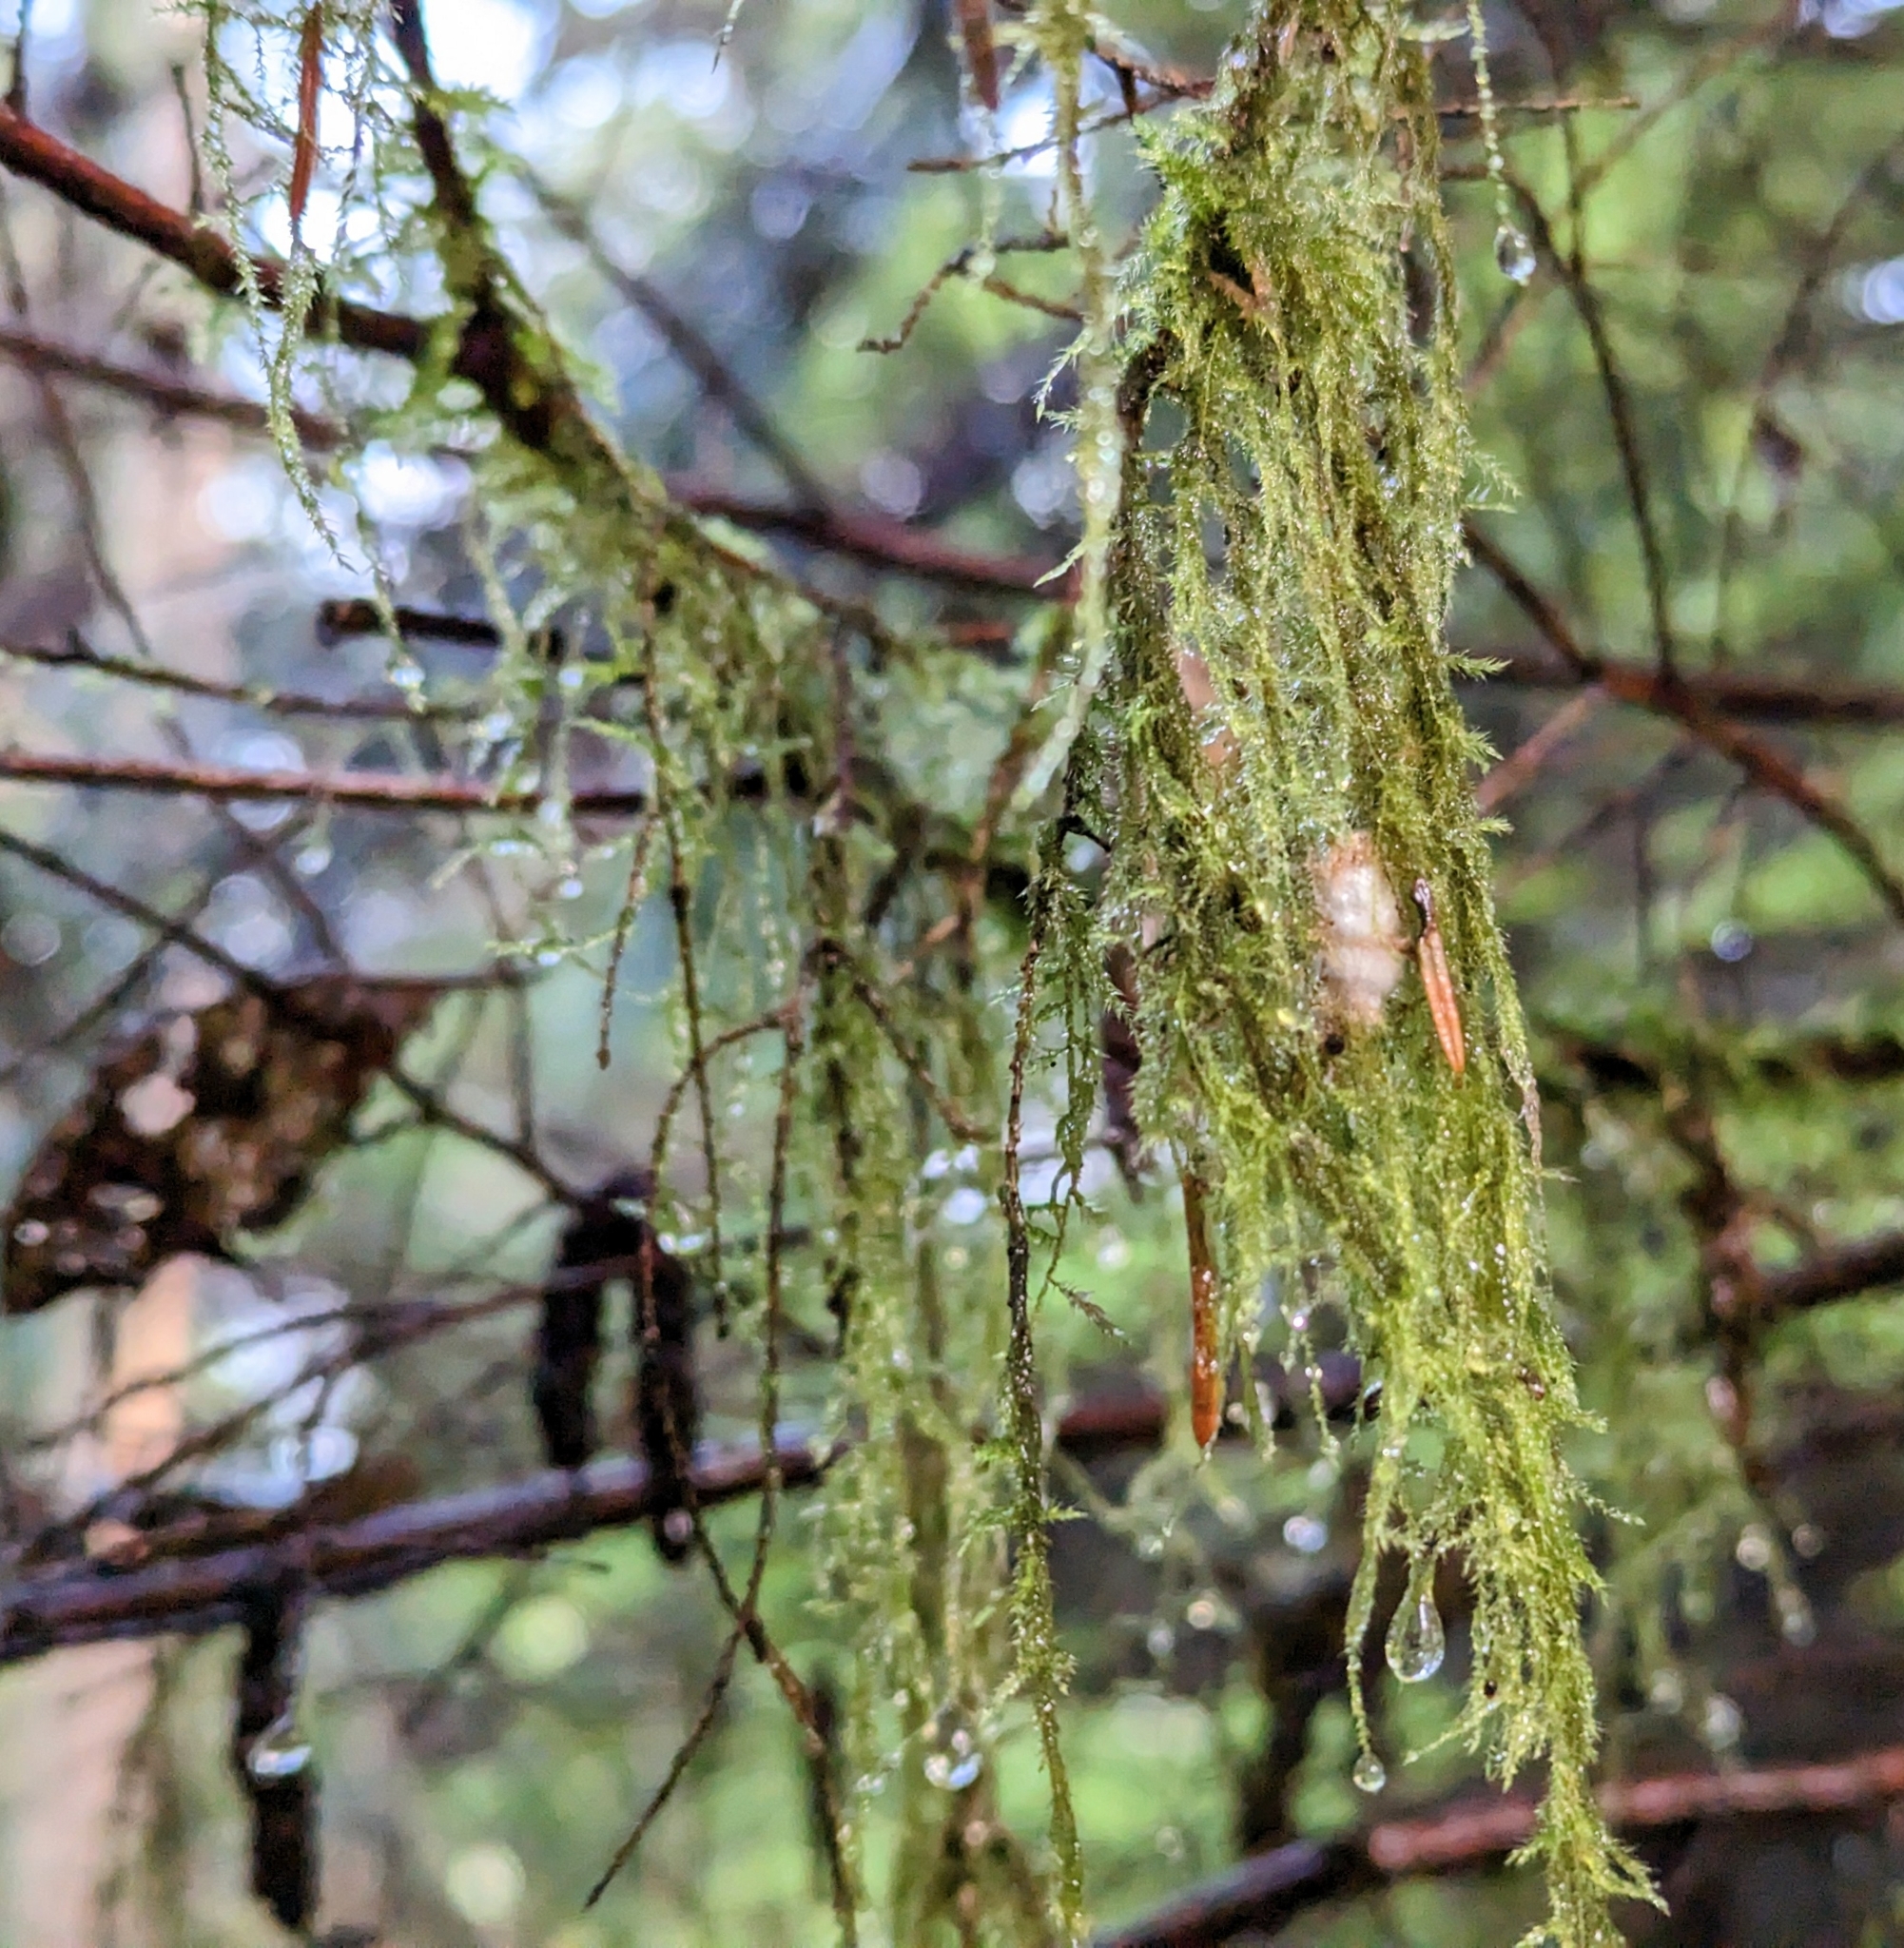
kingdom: Plantae
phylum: Bryophyta
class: Bryopsida
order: Hypnales
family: Lembophyllaceae
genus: Pseudisothecium
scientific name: Pseudisothecium stoloniferum
